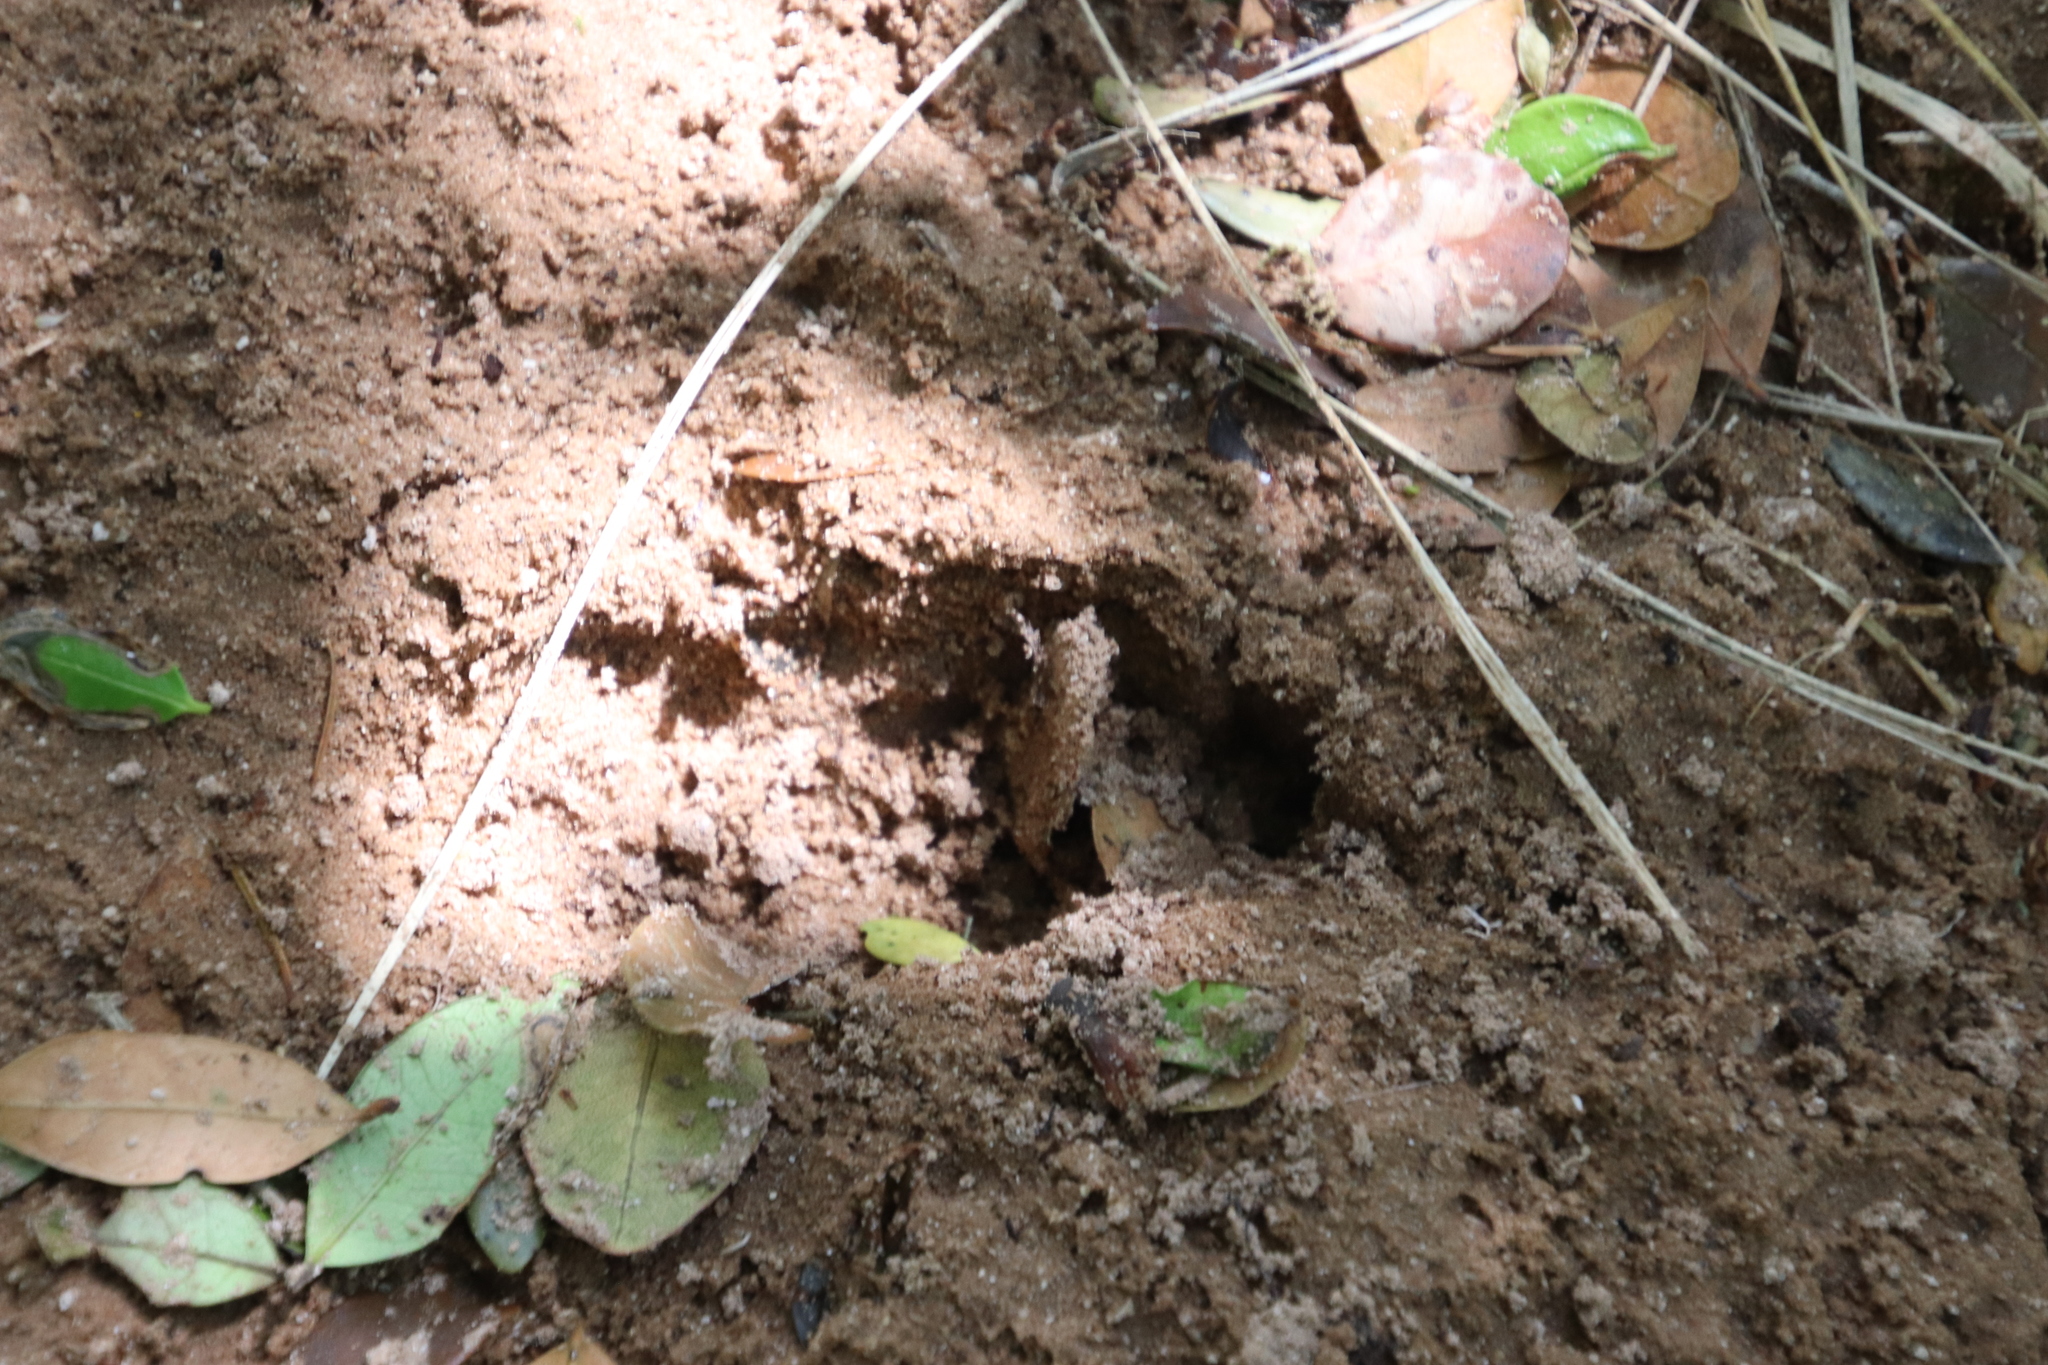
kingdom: Animalia
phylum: Chordata
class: Mammalia
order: Rodentia
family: Hystricidae
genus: Hystrix
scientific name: Hystrix africaeaustralis
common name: Cape porcupine
